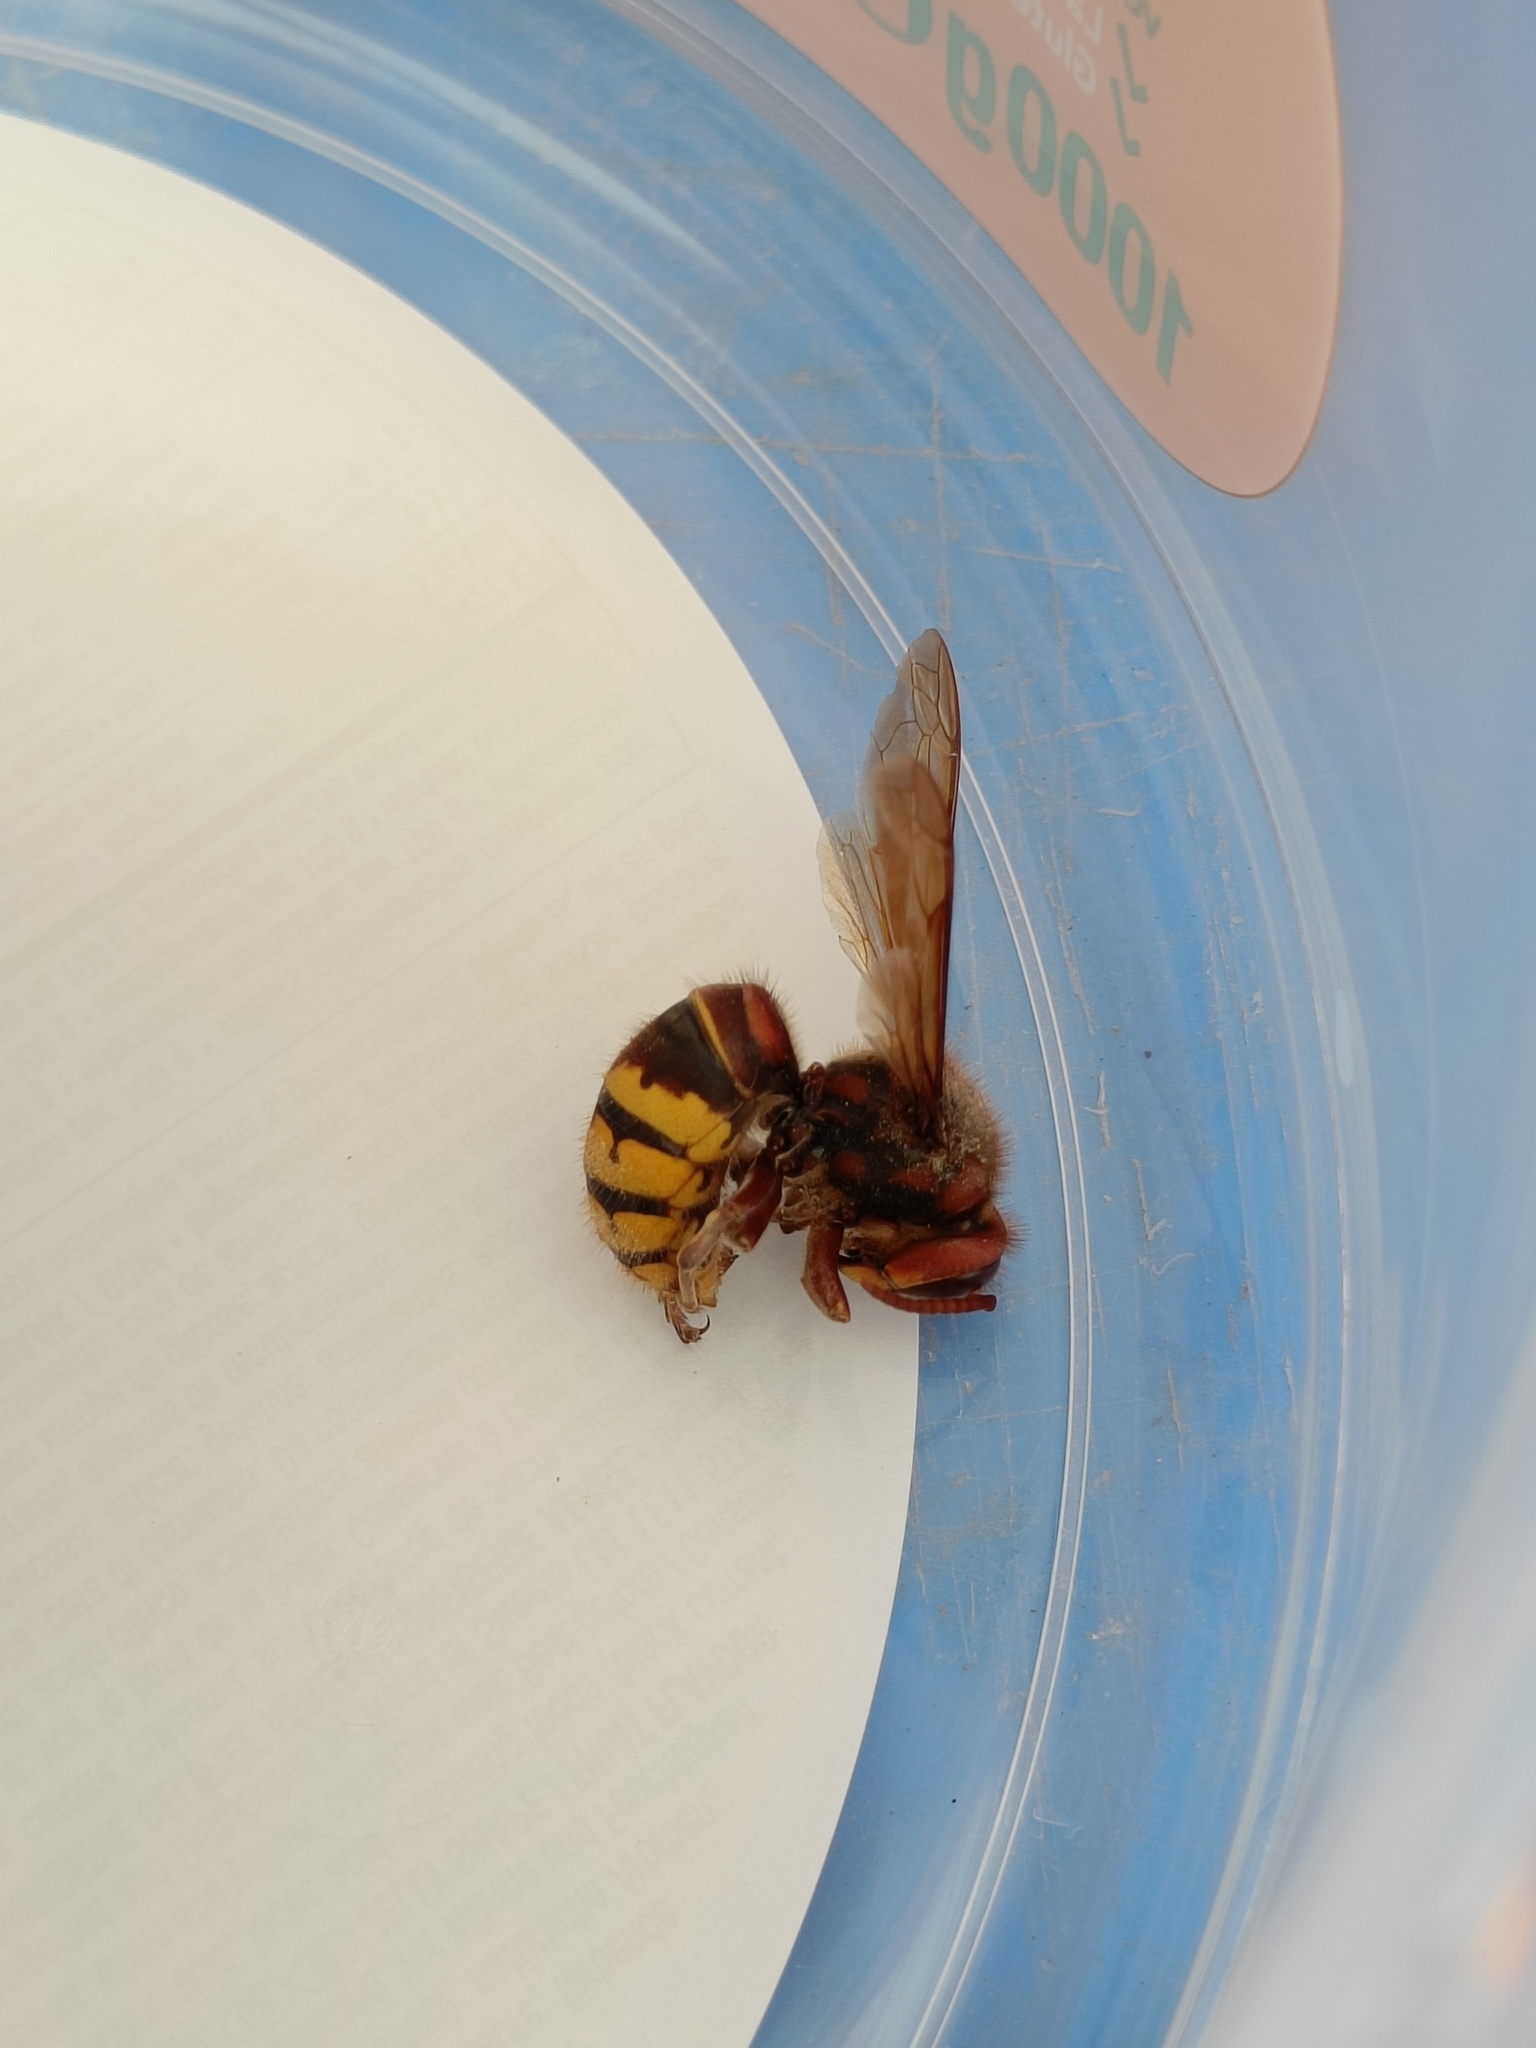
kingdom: Animalia
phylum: Arthropoda
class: Insecta
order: Hymenoptera
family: Vespidae
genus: Vespa
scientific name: Vespa crabro
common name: Hornet
